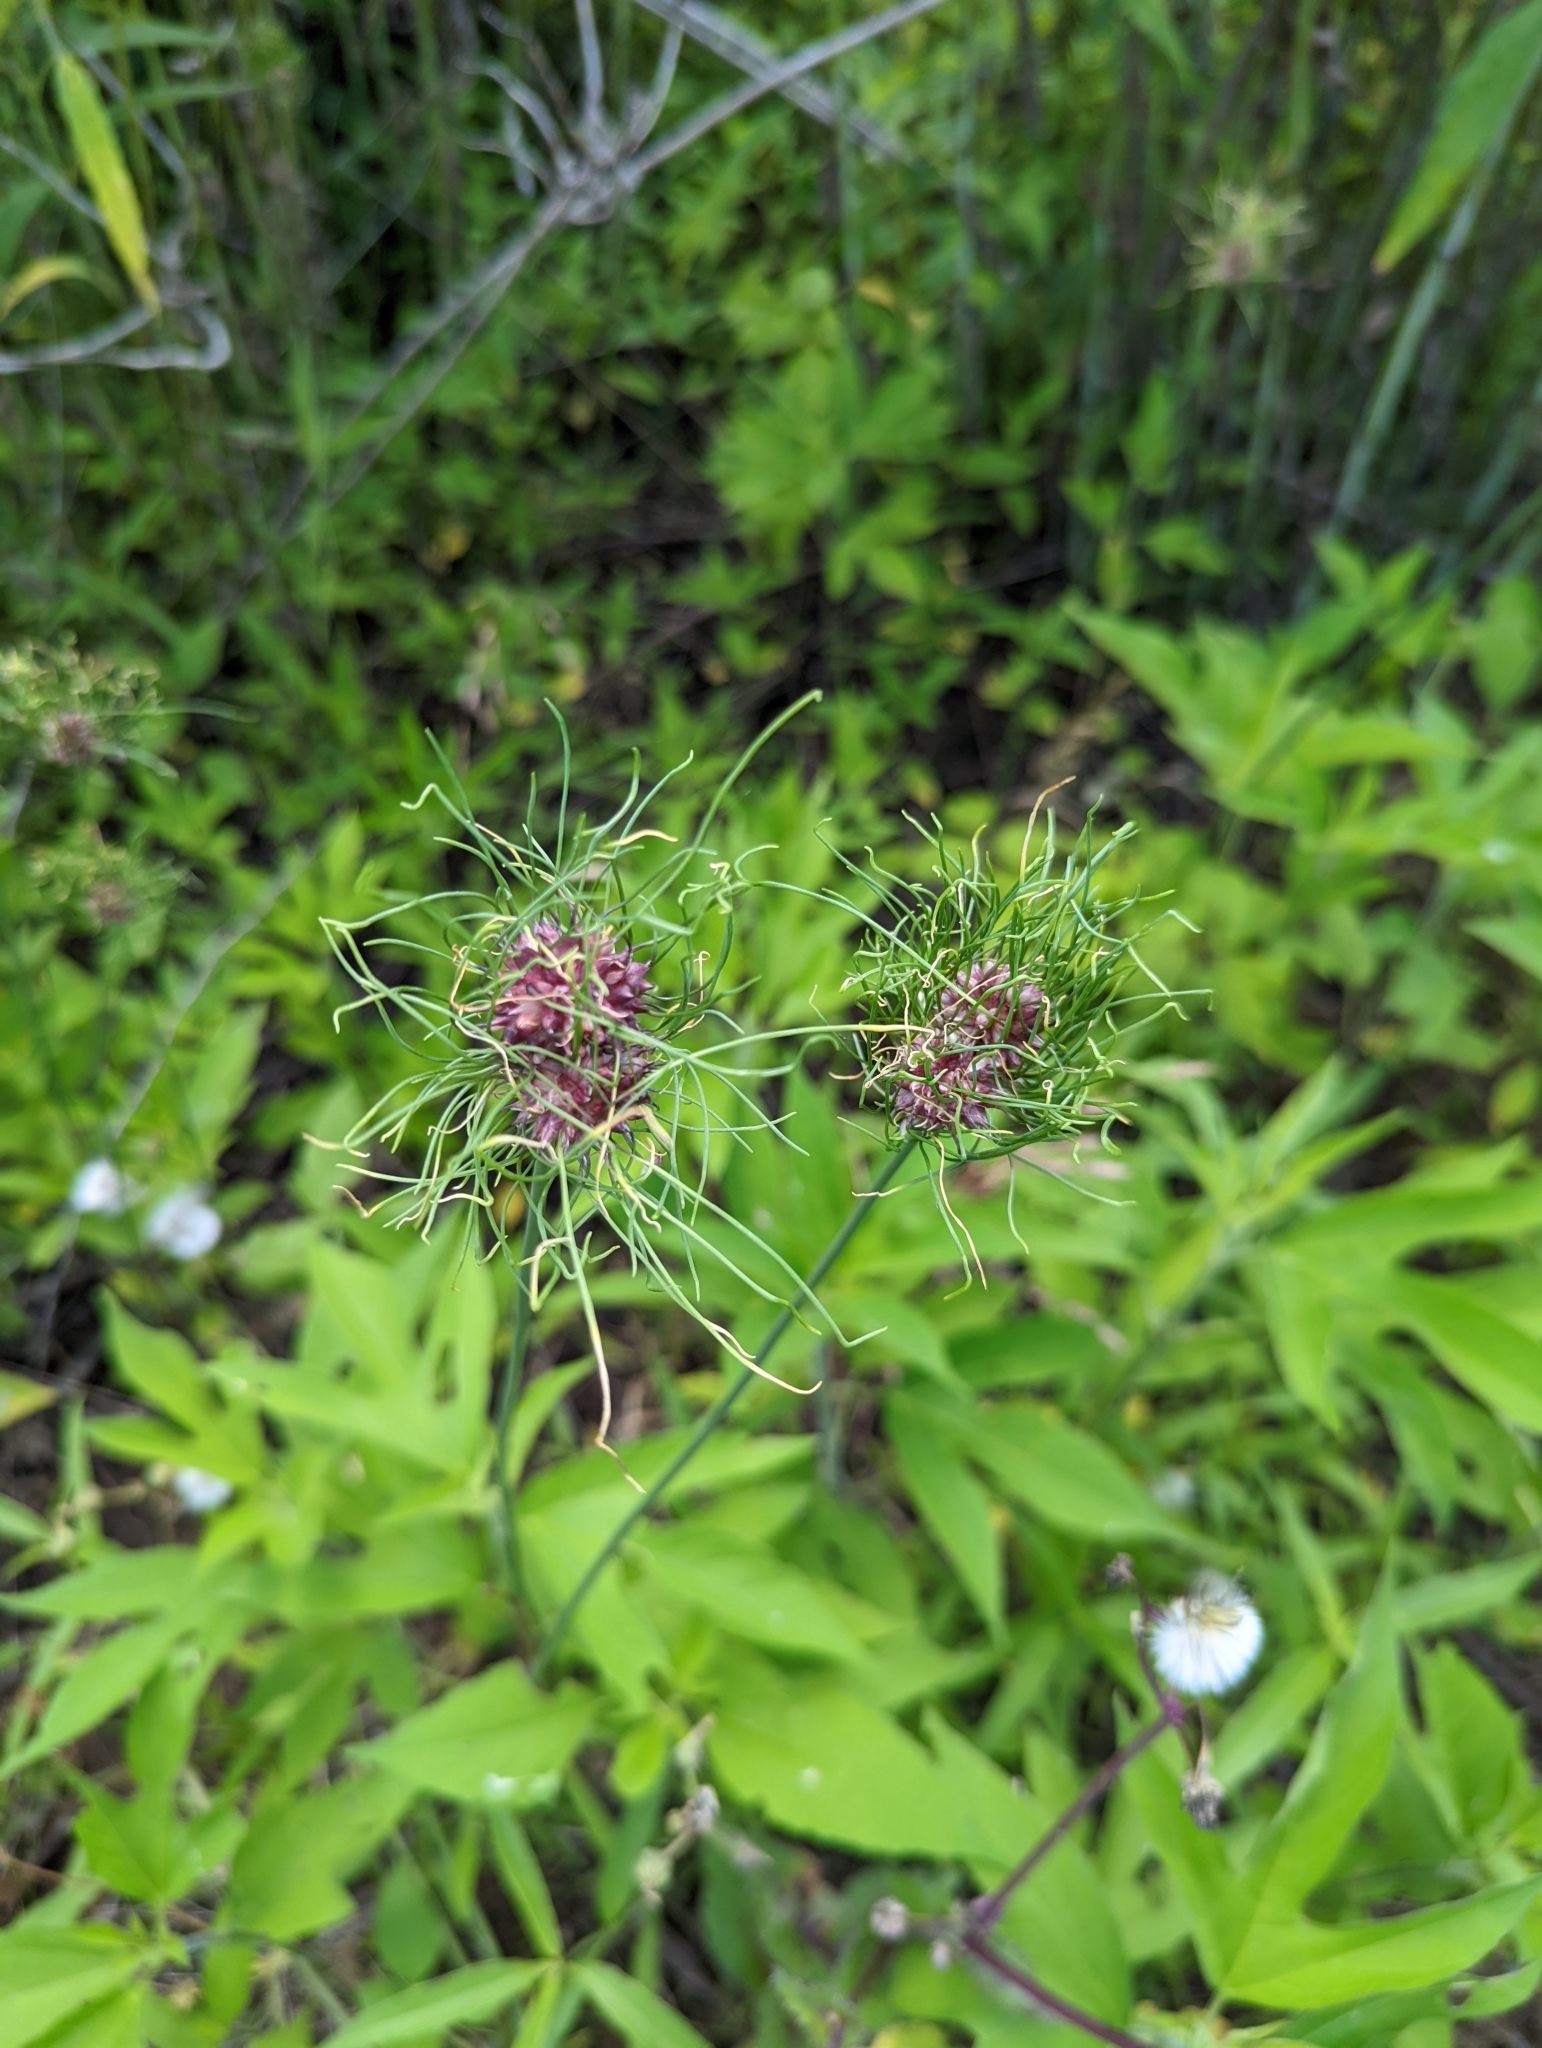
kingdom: Plantae
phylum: Tracheophyta
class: Liliopsida
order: Asparagales
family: Amaryllidaceae
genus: Allium
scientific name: Allium vineale
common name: Crow garlic
